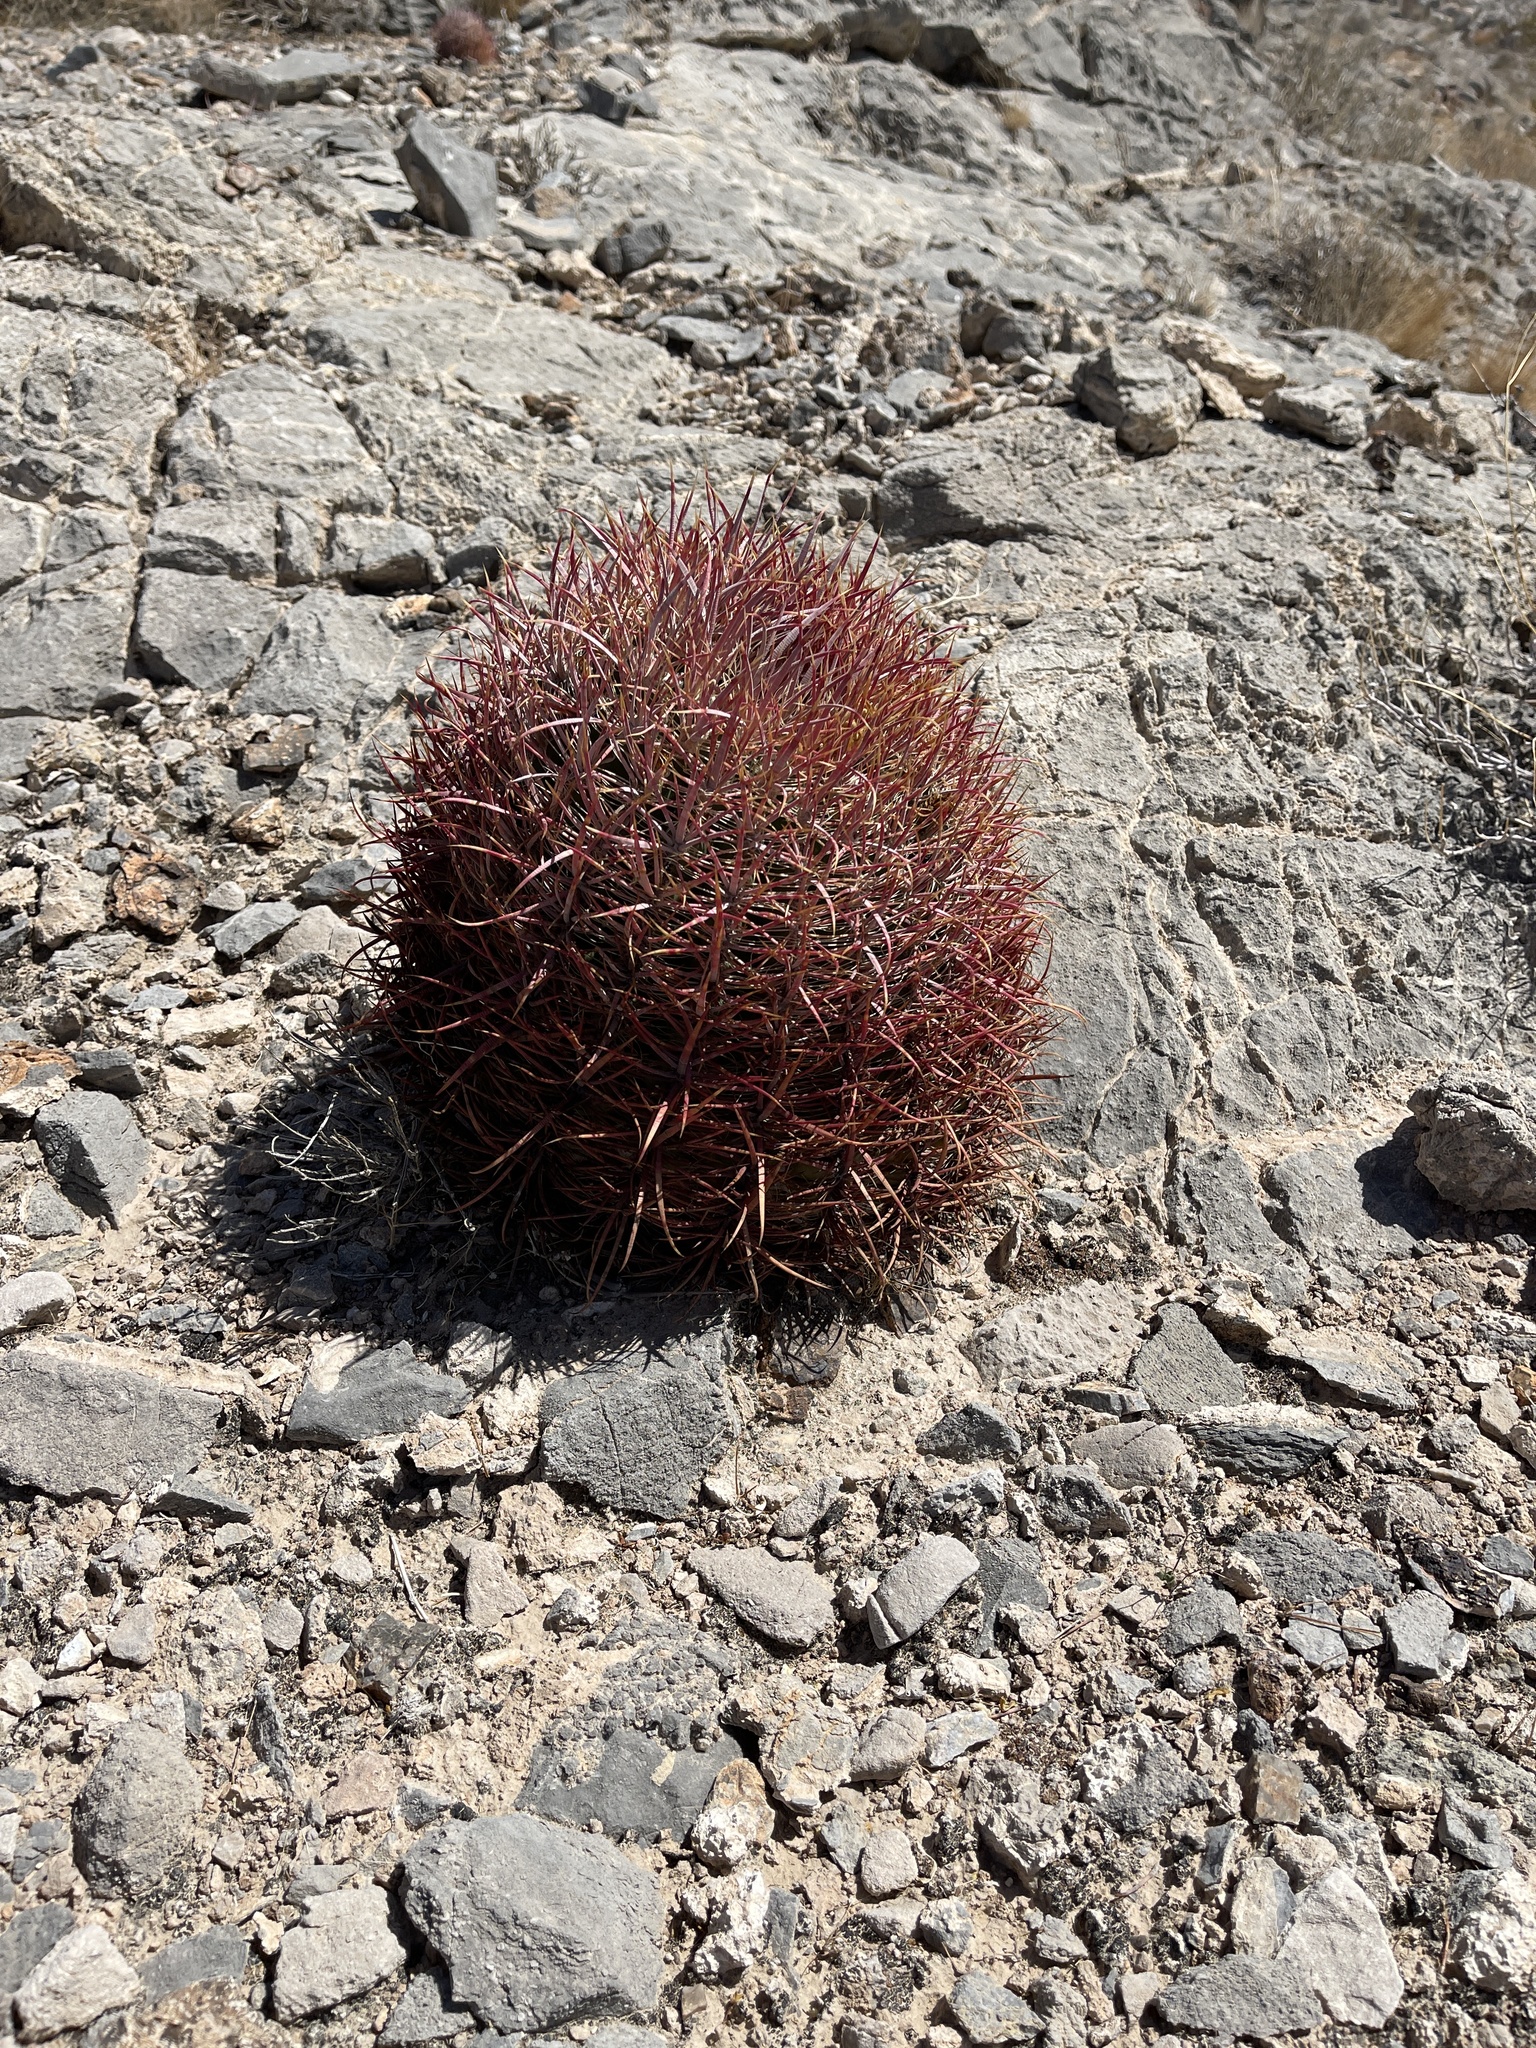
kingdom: Plantae
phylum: Tracheophyta
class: Magnoliopsida
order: Caryophyllales
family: Cactaceae
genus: Ferocactus
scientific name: Ferocactus cylindraceus
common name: California barrel cactus
